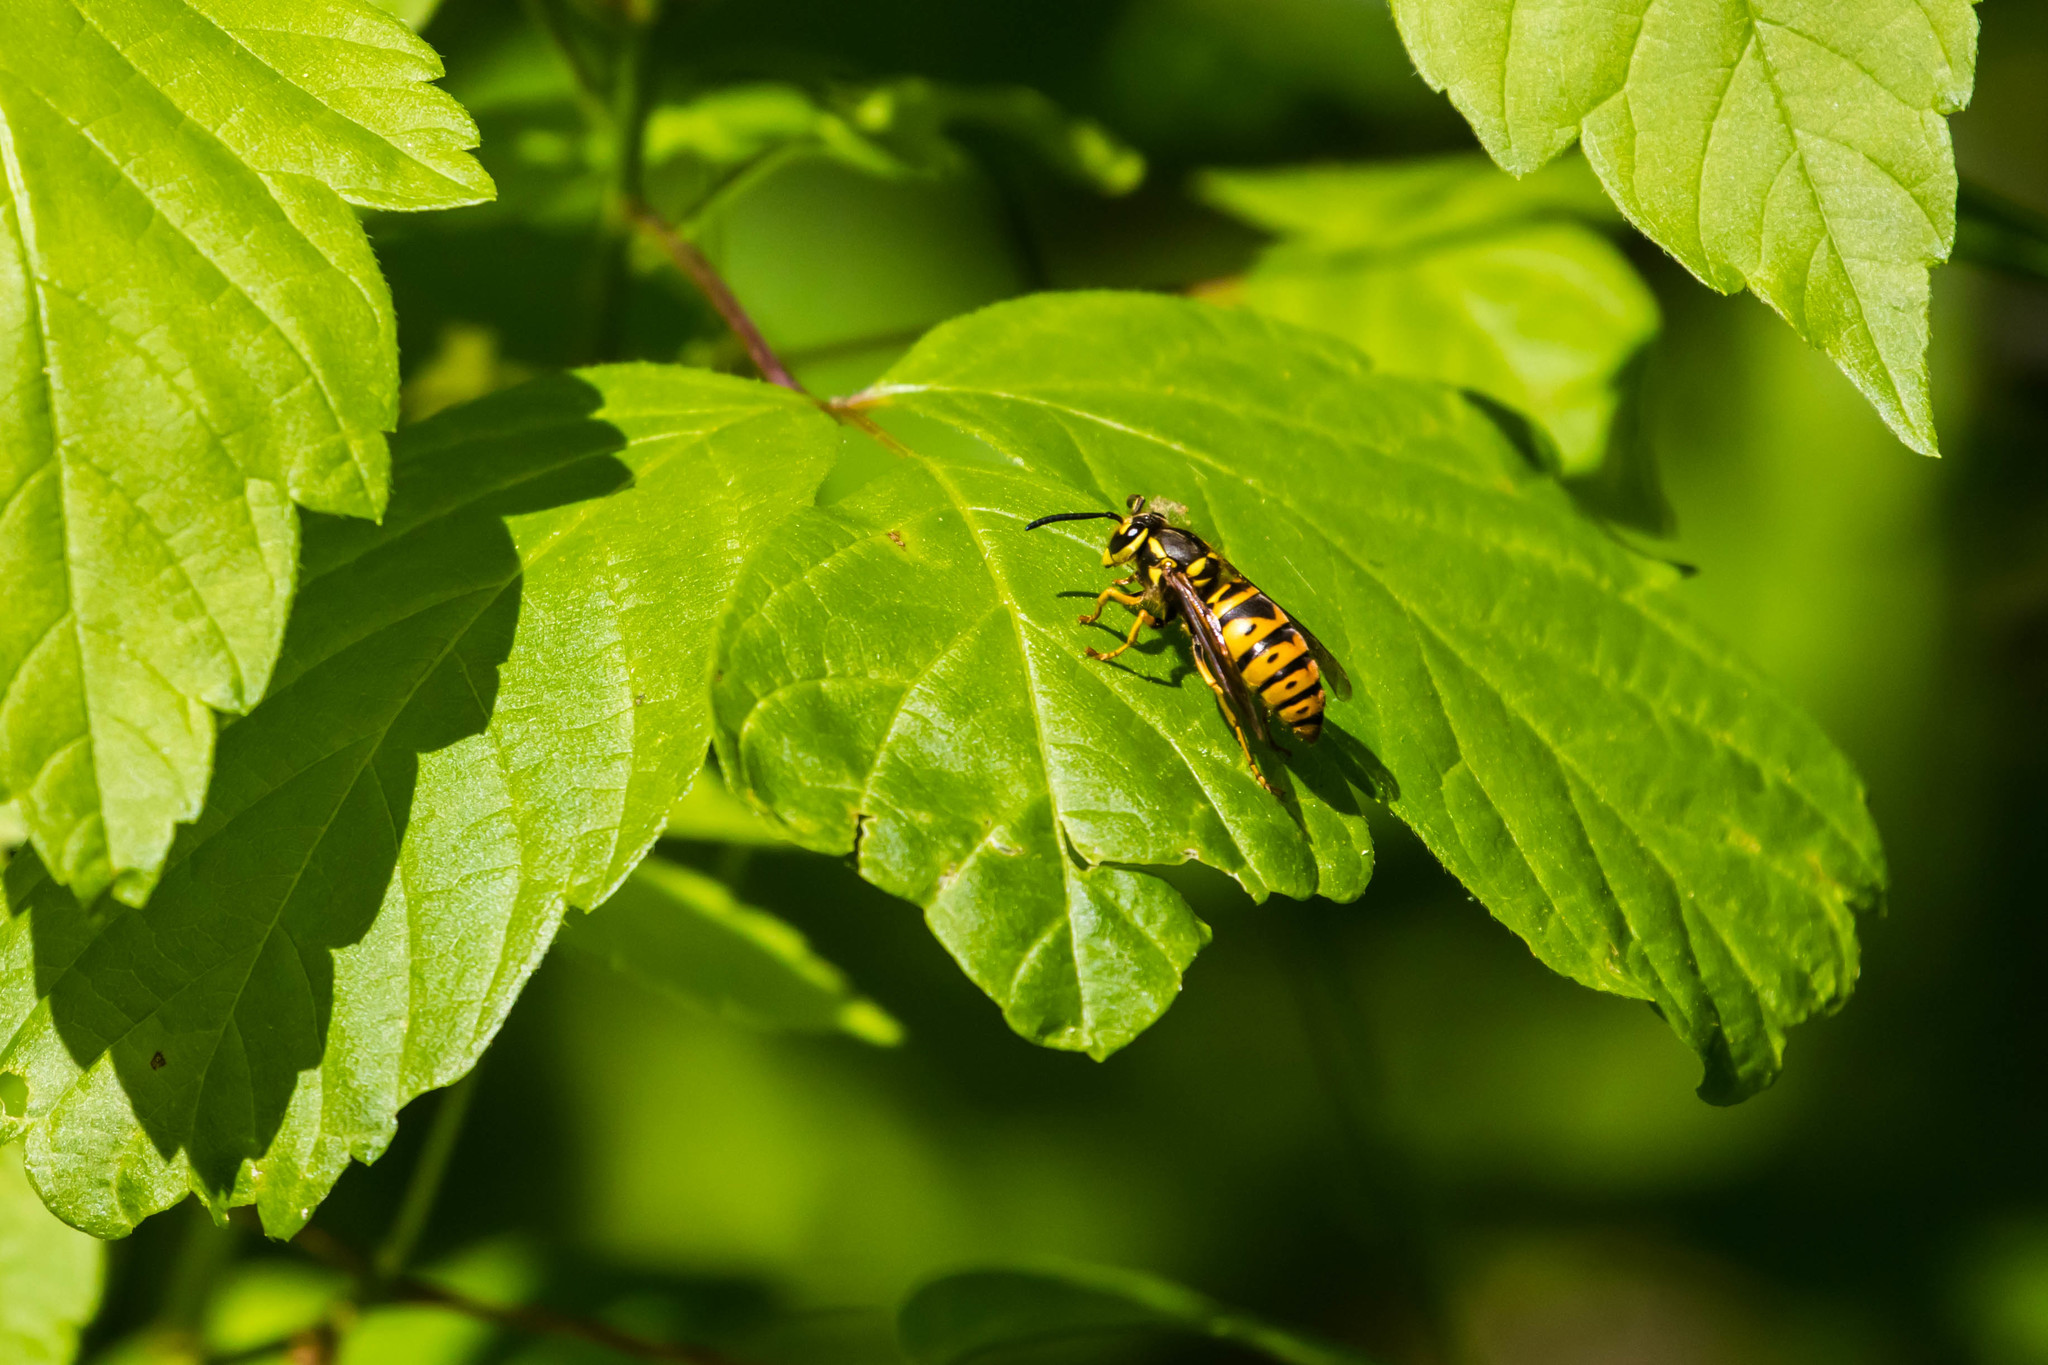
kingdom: Animalia
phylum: Arthropoda
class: Insecta
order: Hymenoptera
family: Vespidae
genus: Vespula
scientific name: Vespula maculifrons
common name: Eastern yellowjacket
